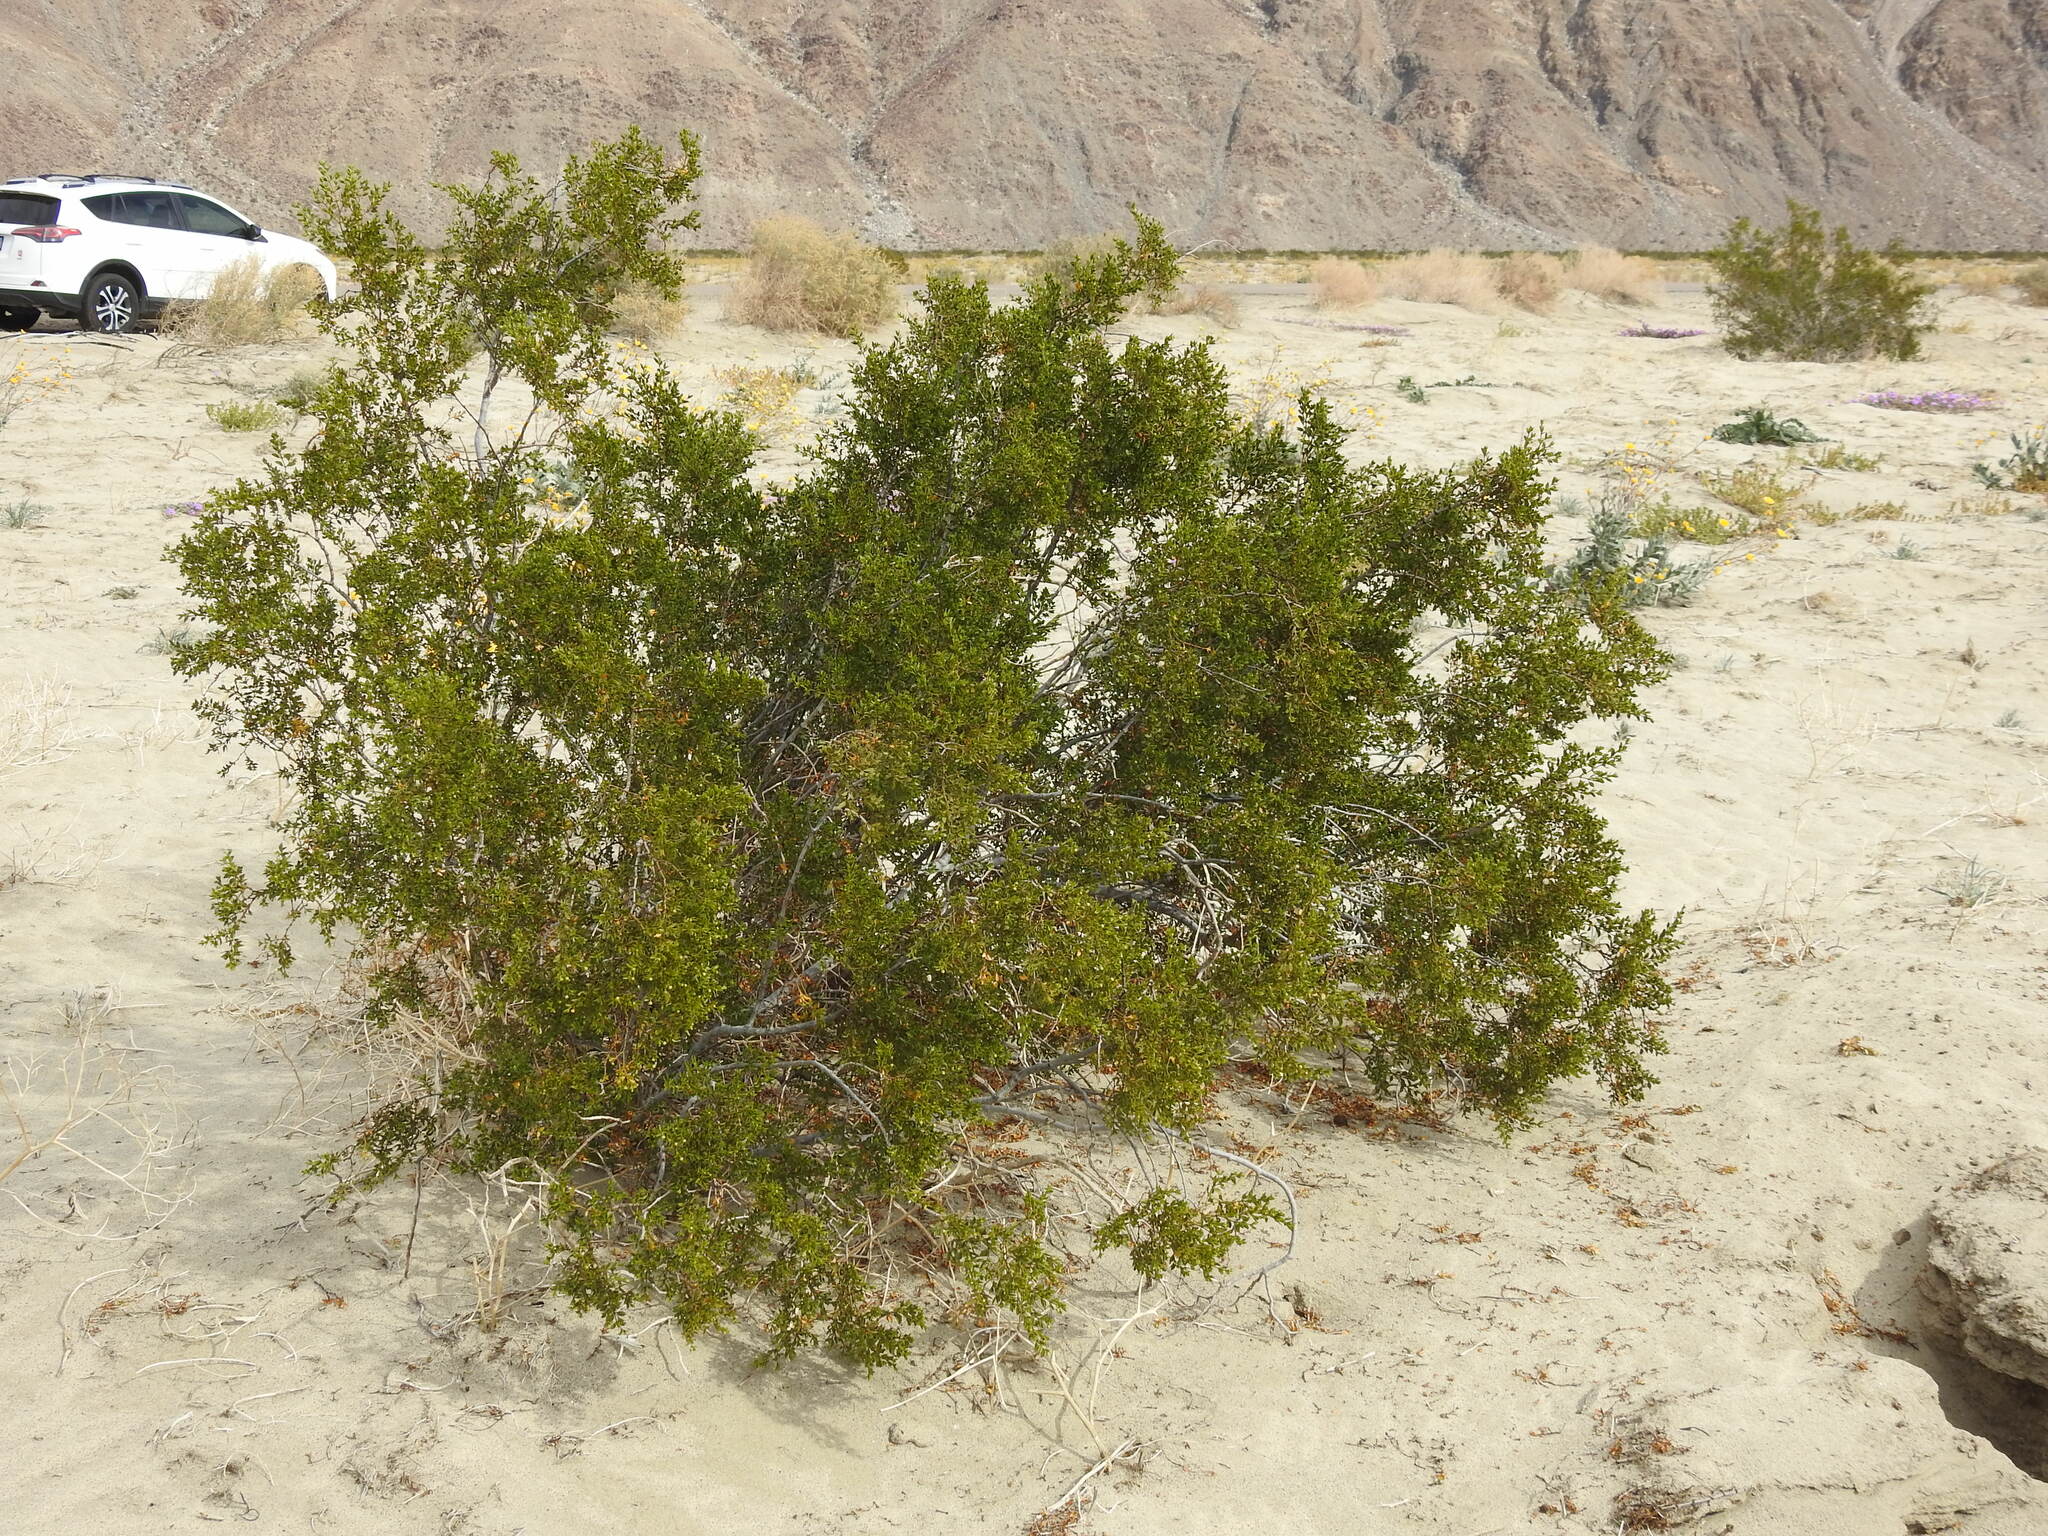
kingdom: Plantae
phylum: Tracheophyta
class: Magnoliopsida
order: Zygophyllales
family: Zygophyllaceae
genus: Larrea
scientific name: Larrea tridentata
